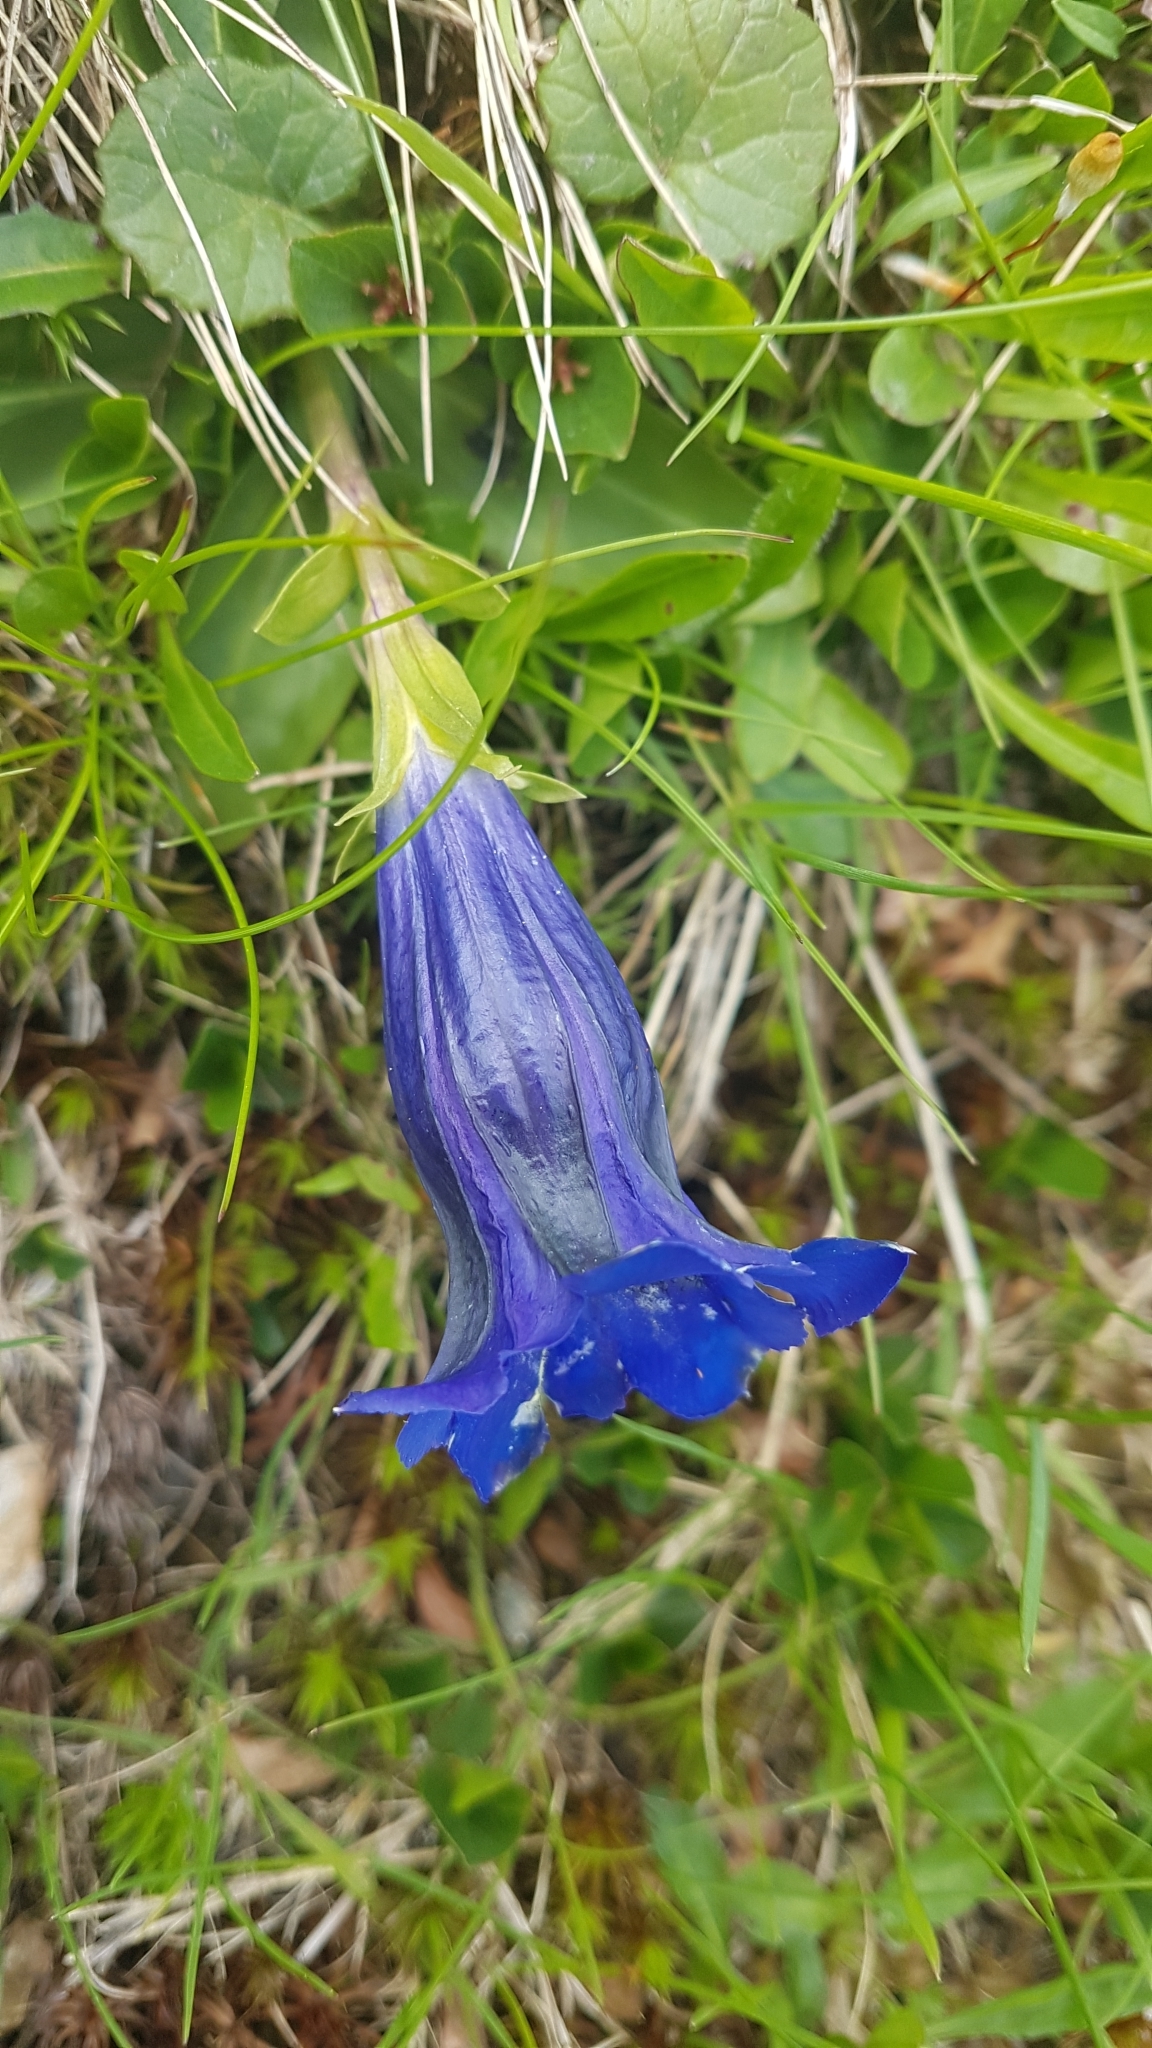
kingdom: Plantae
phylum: Tracheophyta
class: Magnoliopsida
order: Gentianales
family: Gentianaceae
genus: Gentiana
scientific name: Gentiana acaulis
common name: Trumpet gentian
